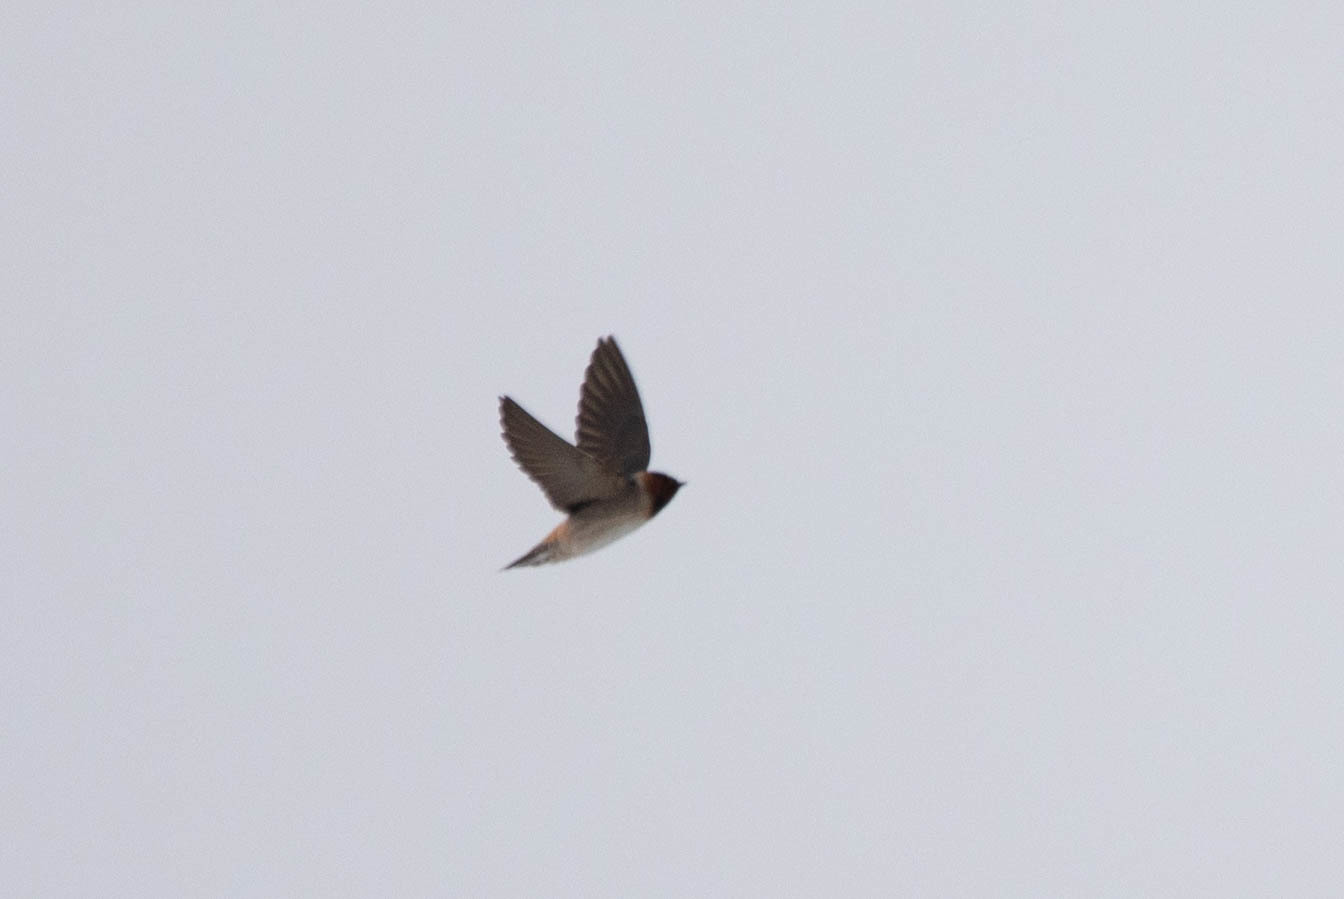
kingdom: Animalia
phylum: Chordata
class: Aves
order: Passeriformes
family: Hirundinidae
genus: Petrochelidon
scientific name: Petrochelidon pyrrhonota
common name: American cliff swallow
